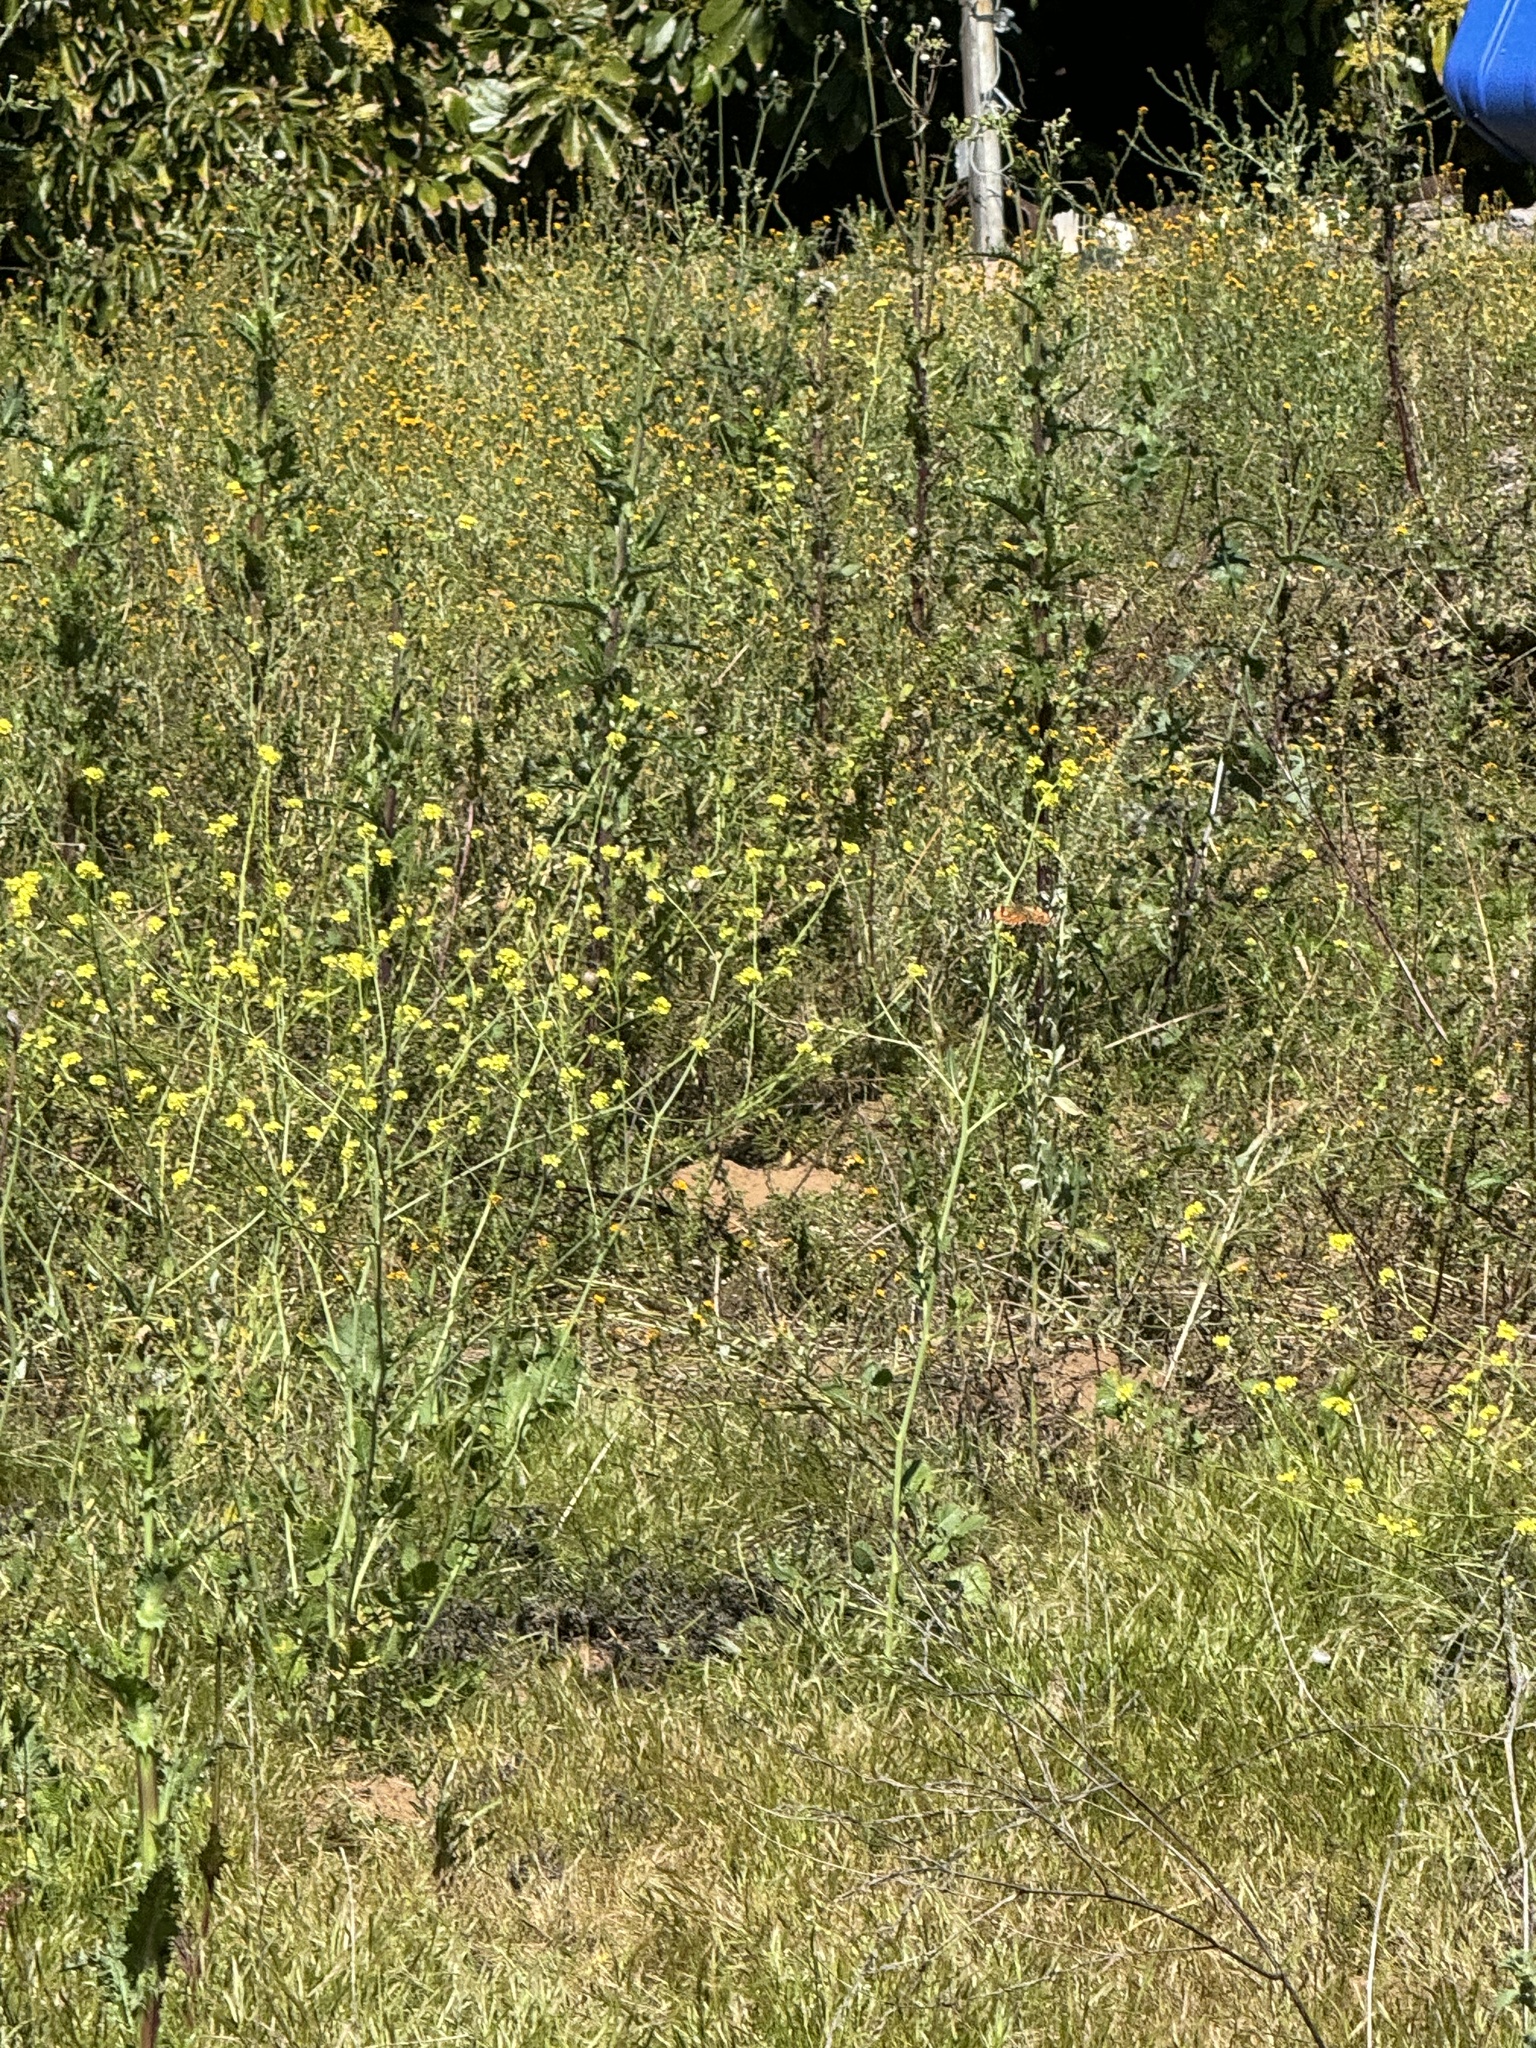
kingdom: Animalia
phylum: Arthropoda
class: Insecta
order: Lepidoptera
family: Nymphalidae
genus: Vanessa
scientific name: Vanessa cardui
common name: Painted lady
